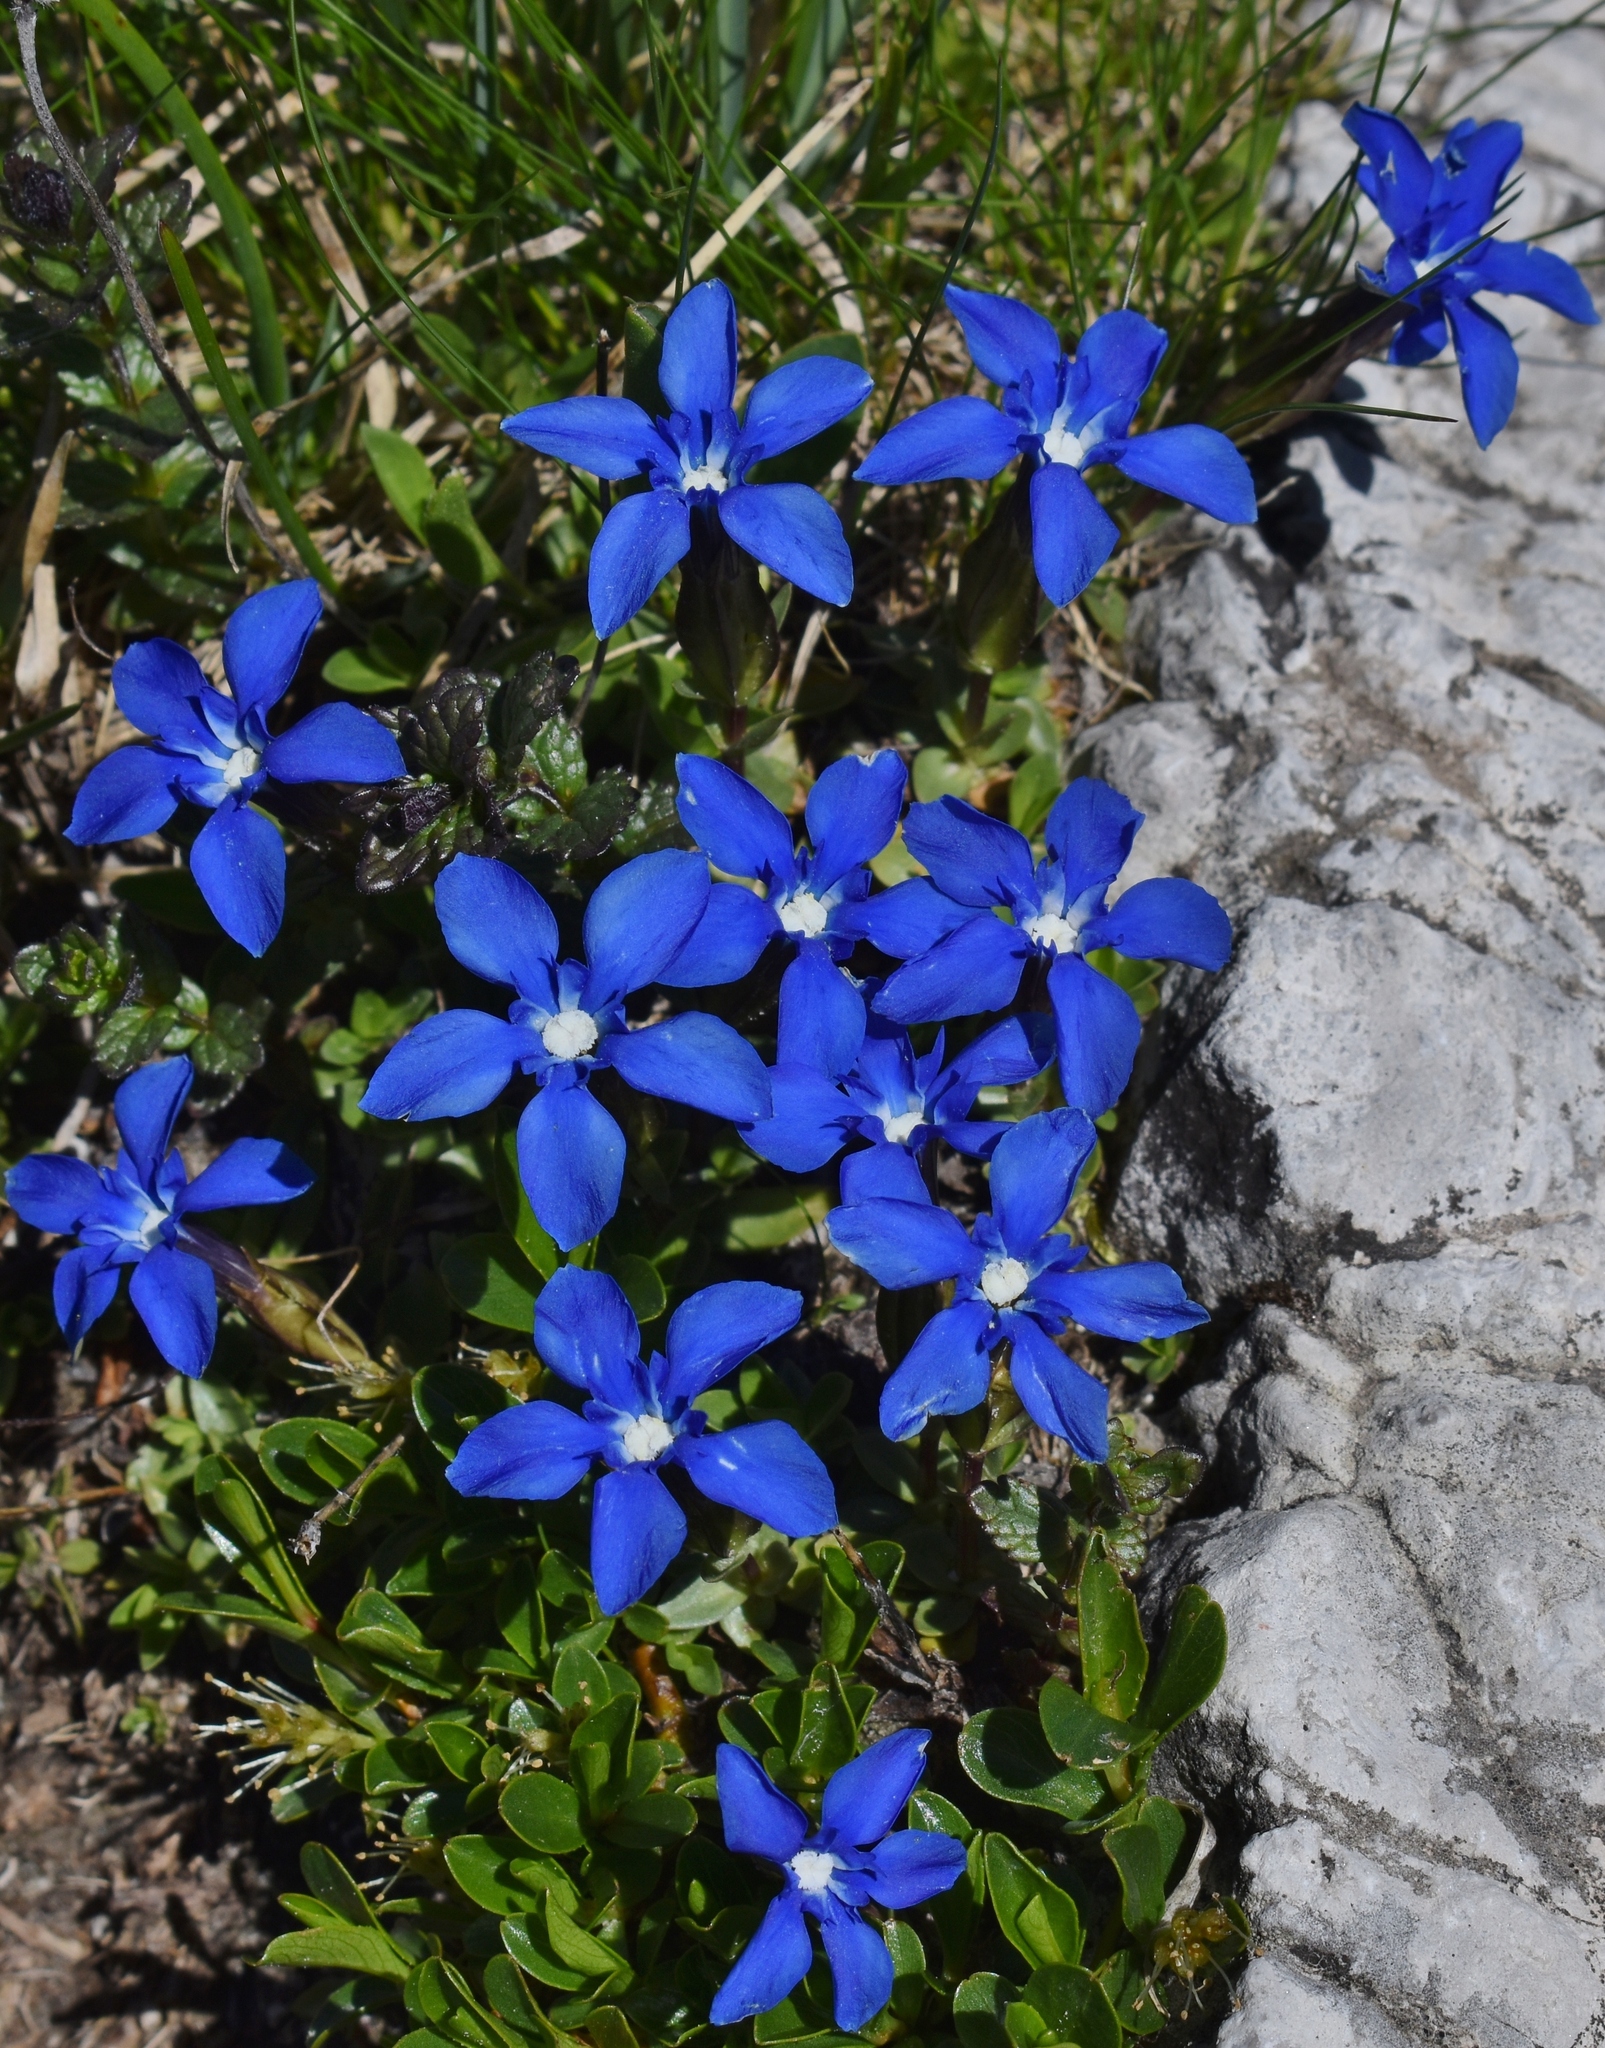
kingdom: Plantae
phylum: Tracheophyta
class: Magnoliopsida
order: Gentianales
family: Gentianaceae
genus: Gentiana
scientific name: Gentiana verna
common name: Spring gentian
